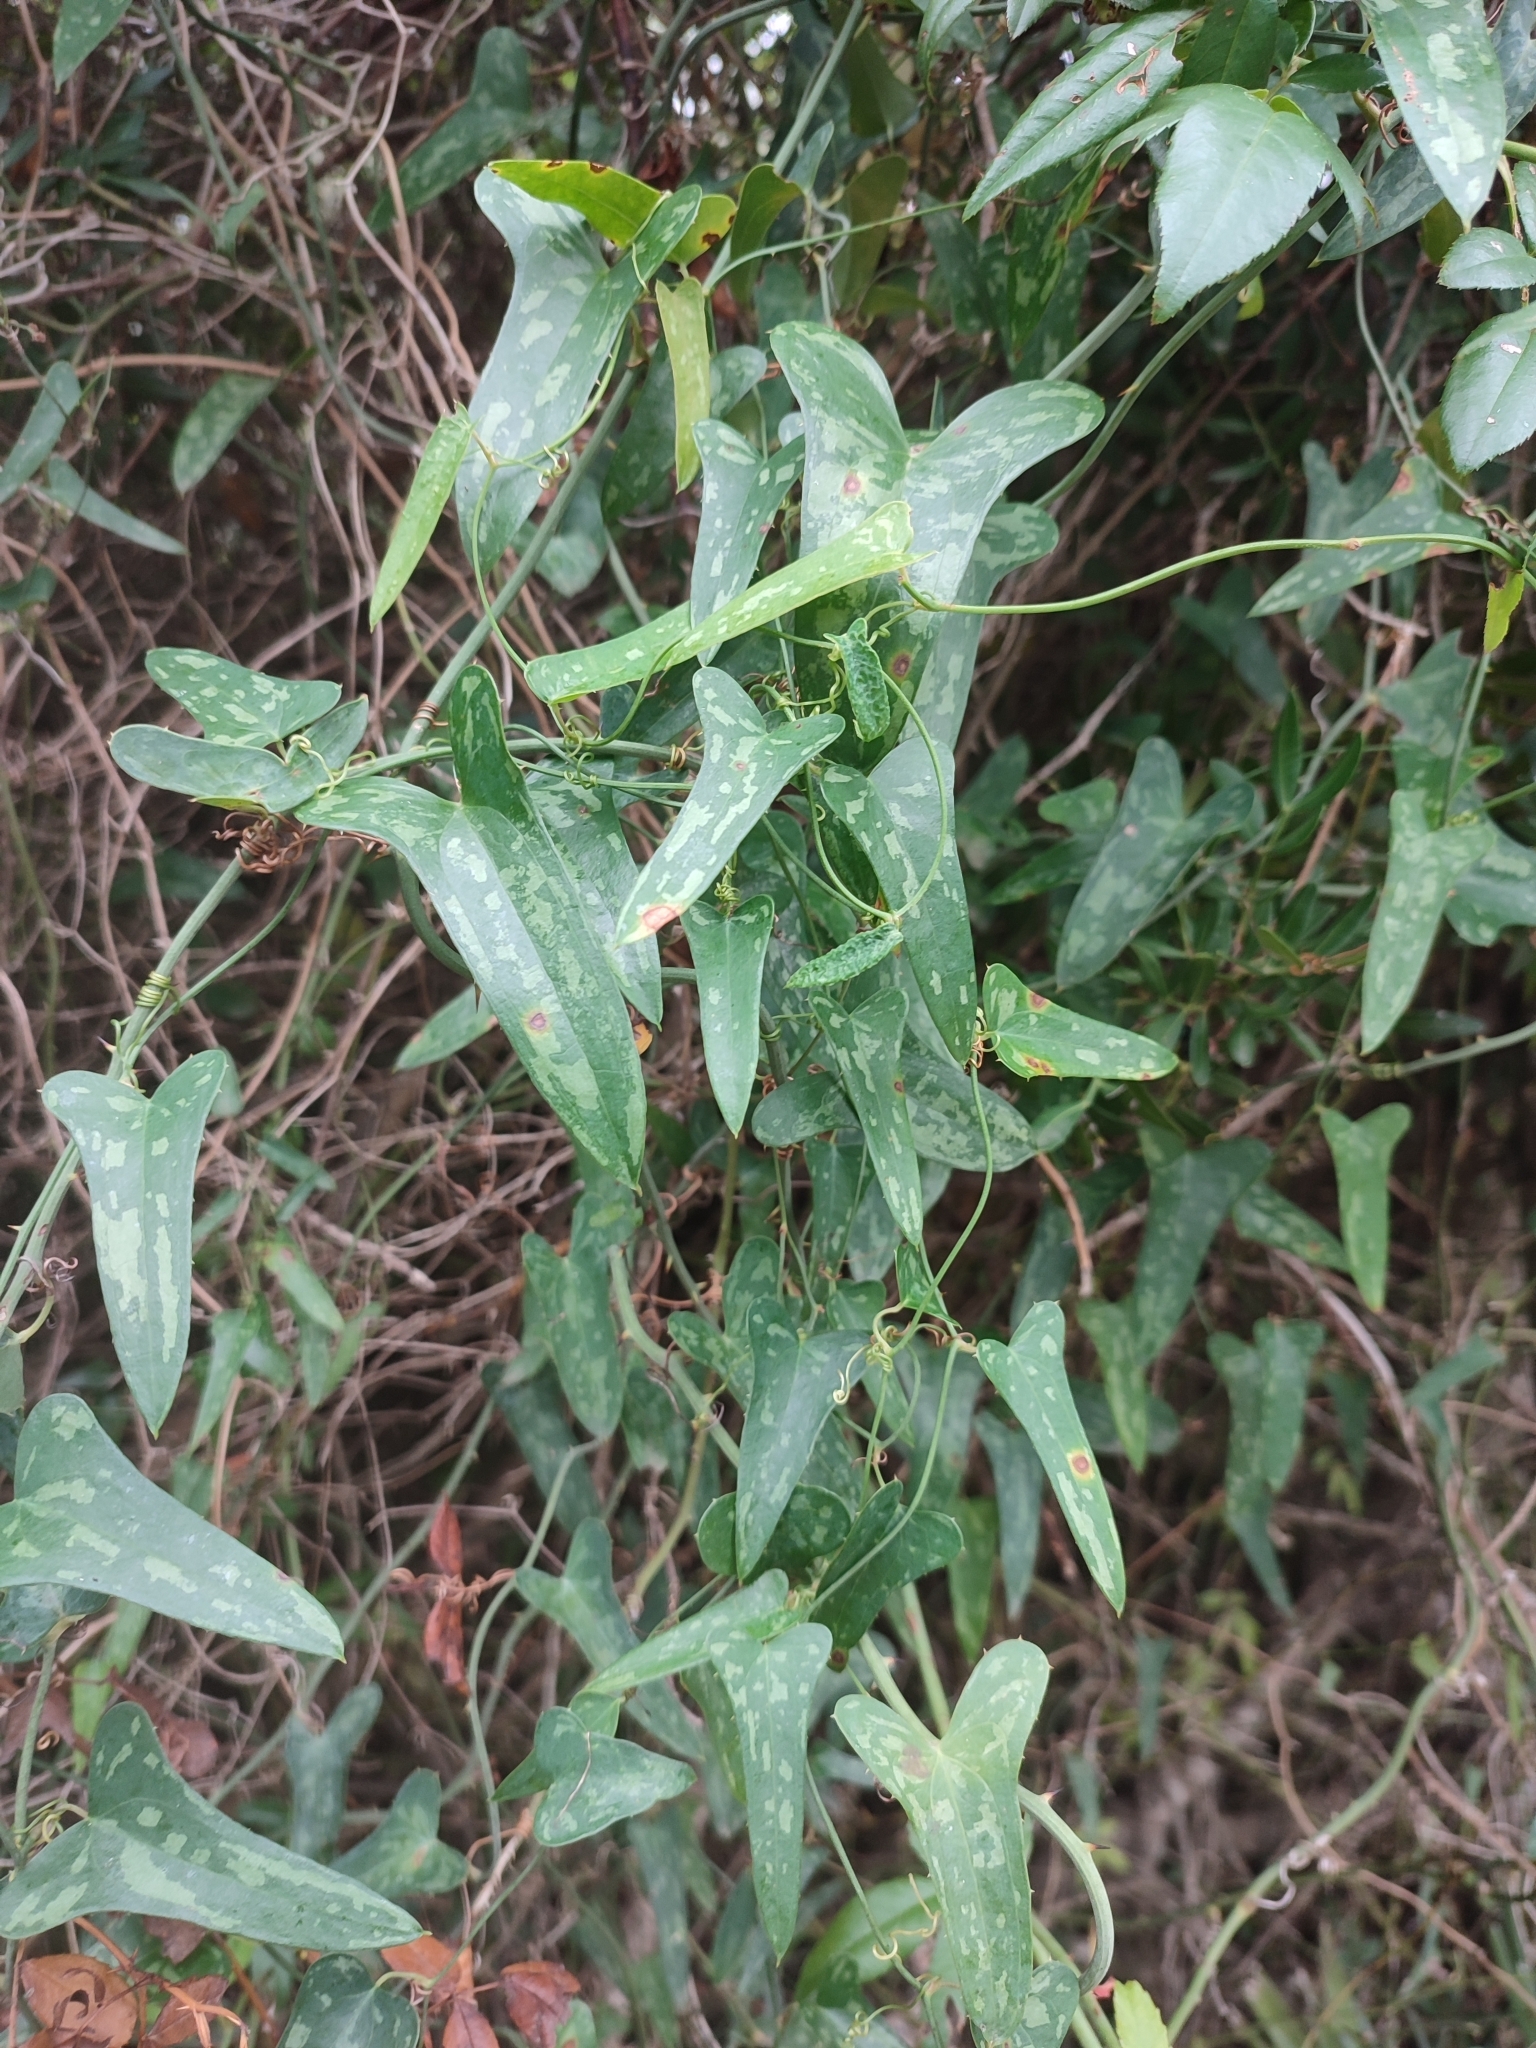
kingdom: Plantae
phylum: Tracheophyta
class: Liliopsida
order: Liliales
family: Smilacaceae
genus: Smilax
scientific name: Smilax aspera
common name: Common smilax
